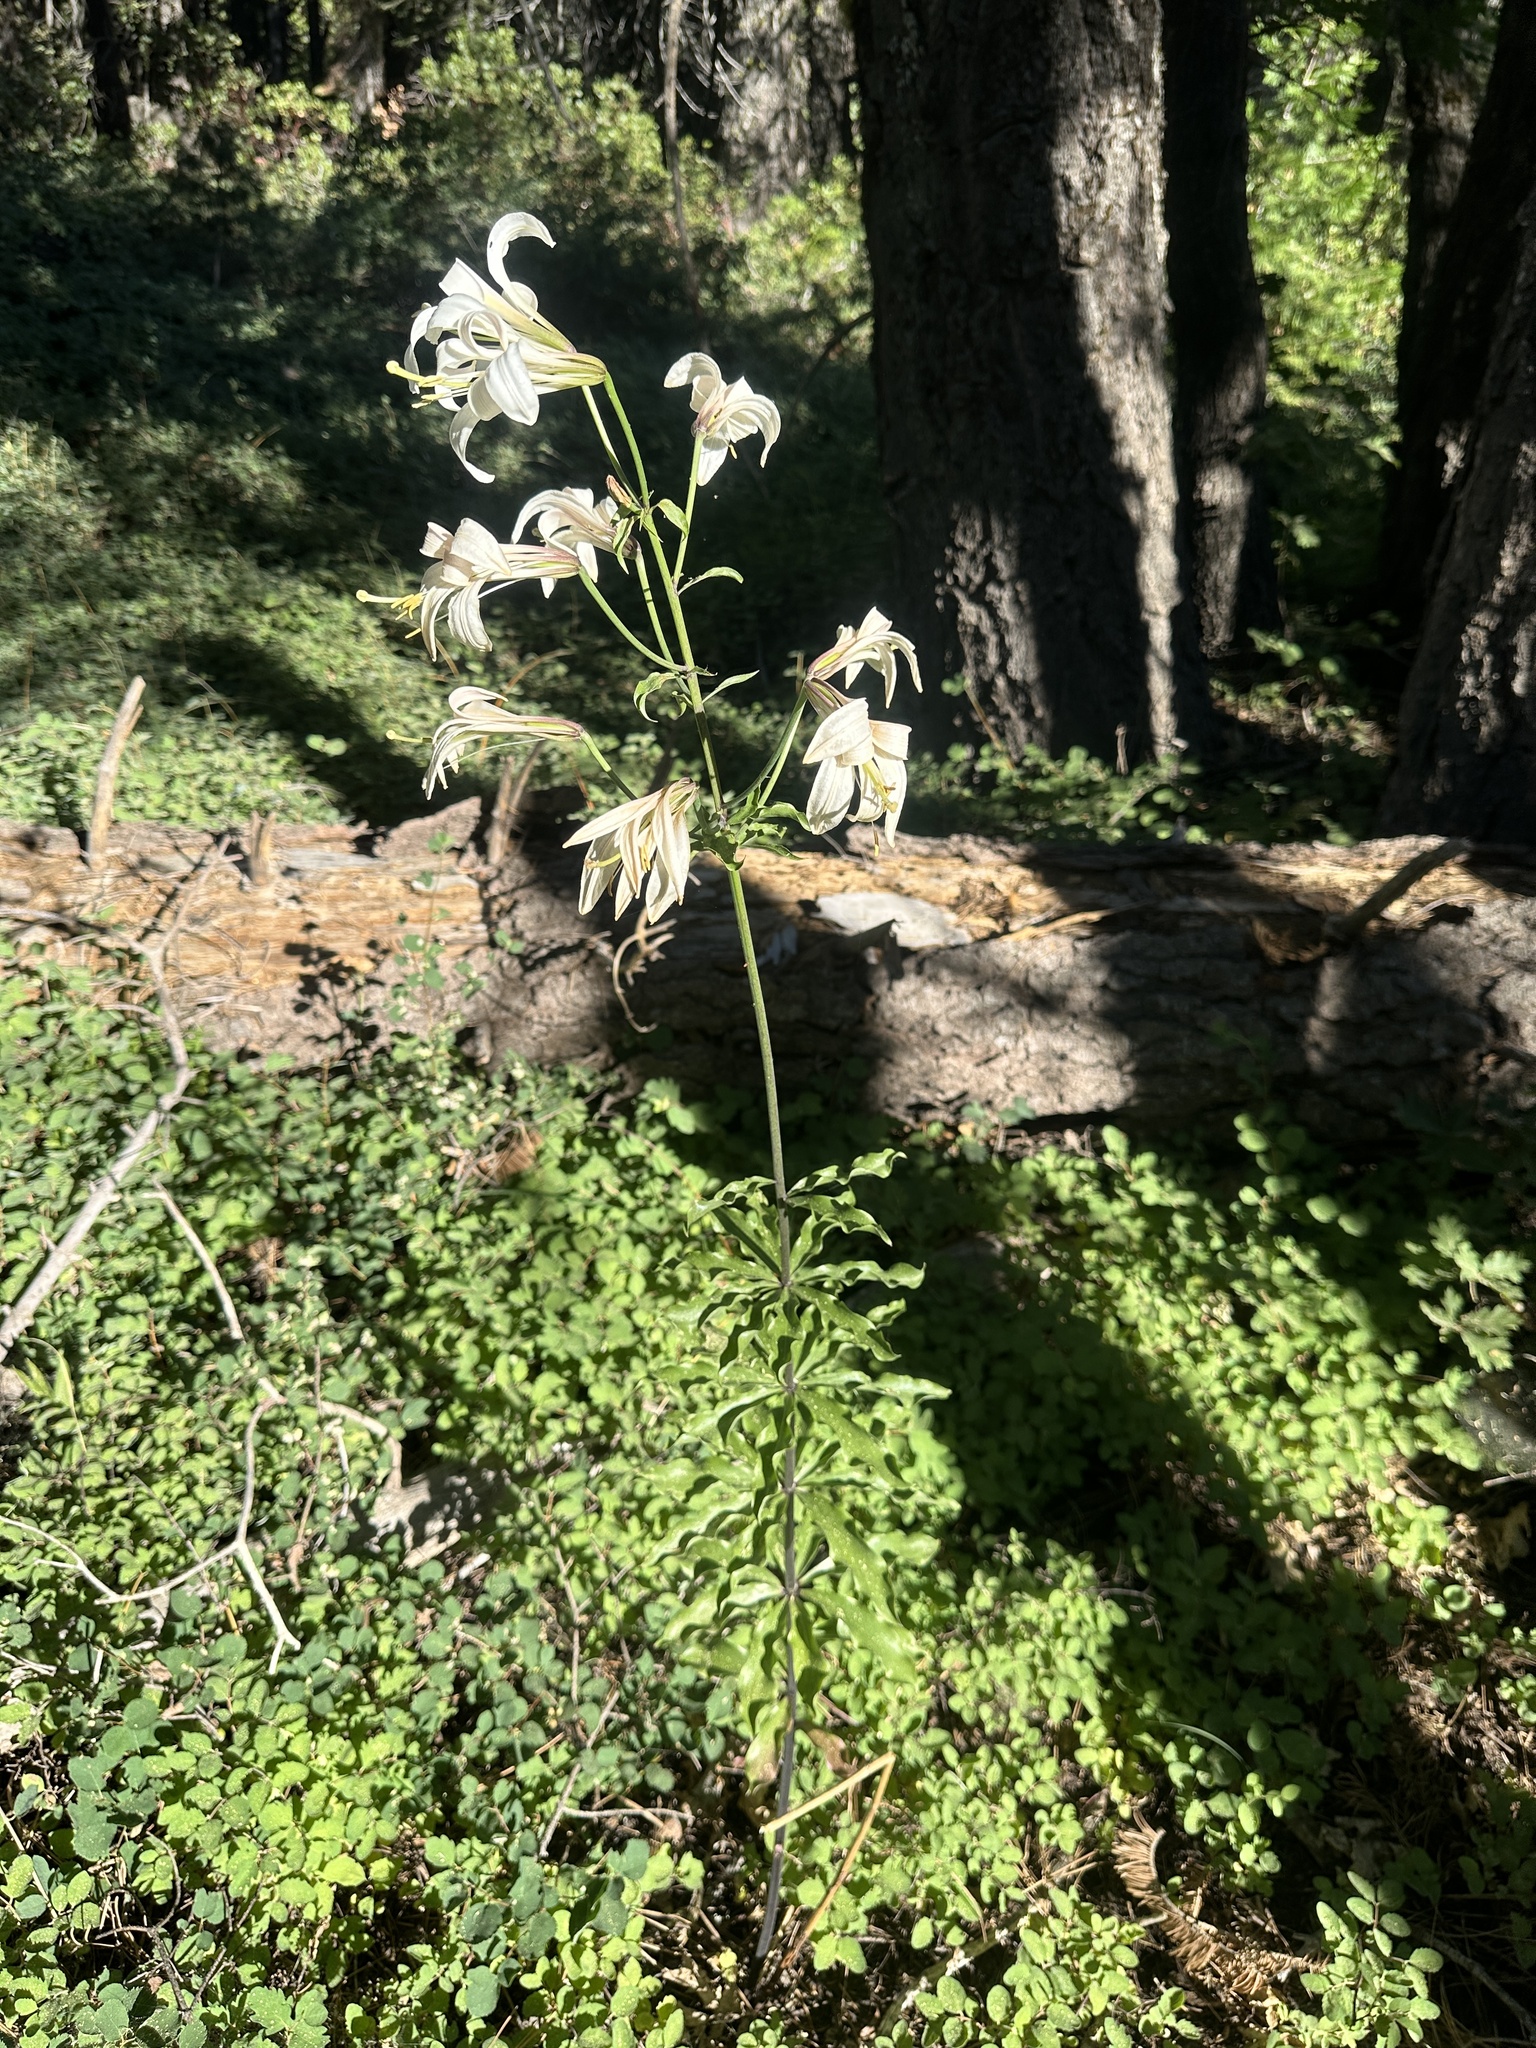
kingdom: Plantae
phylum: Tracheophyta
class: Liliopsida
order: Liliales
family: Liliaceae
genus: Lilium
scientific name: Lilium washingtonianum
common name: Washington lily
